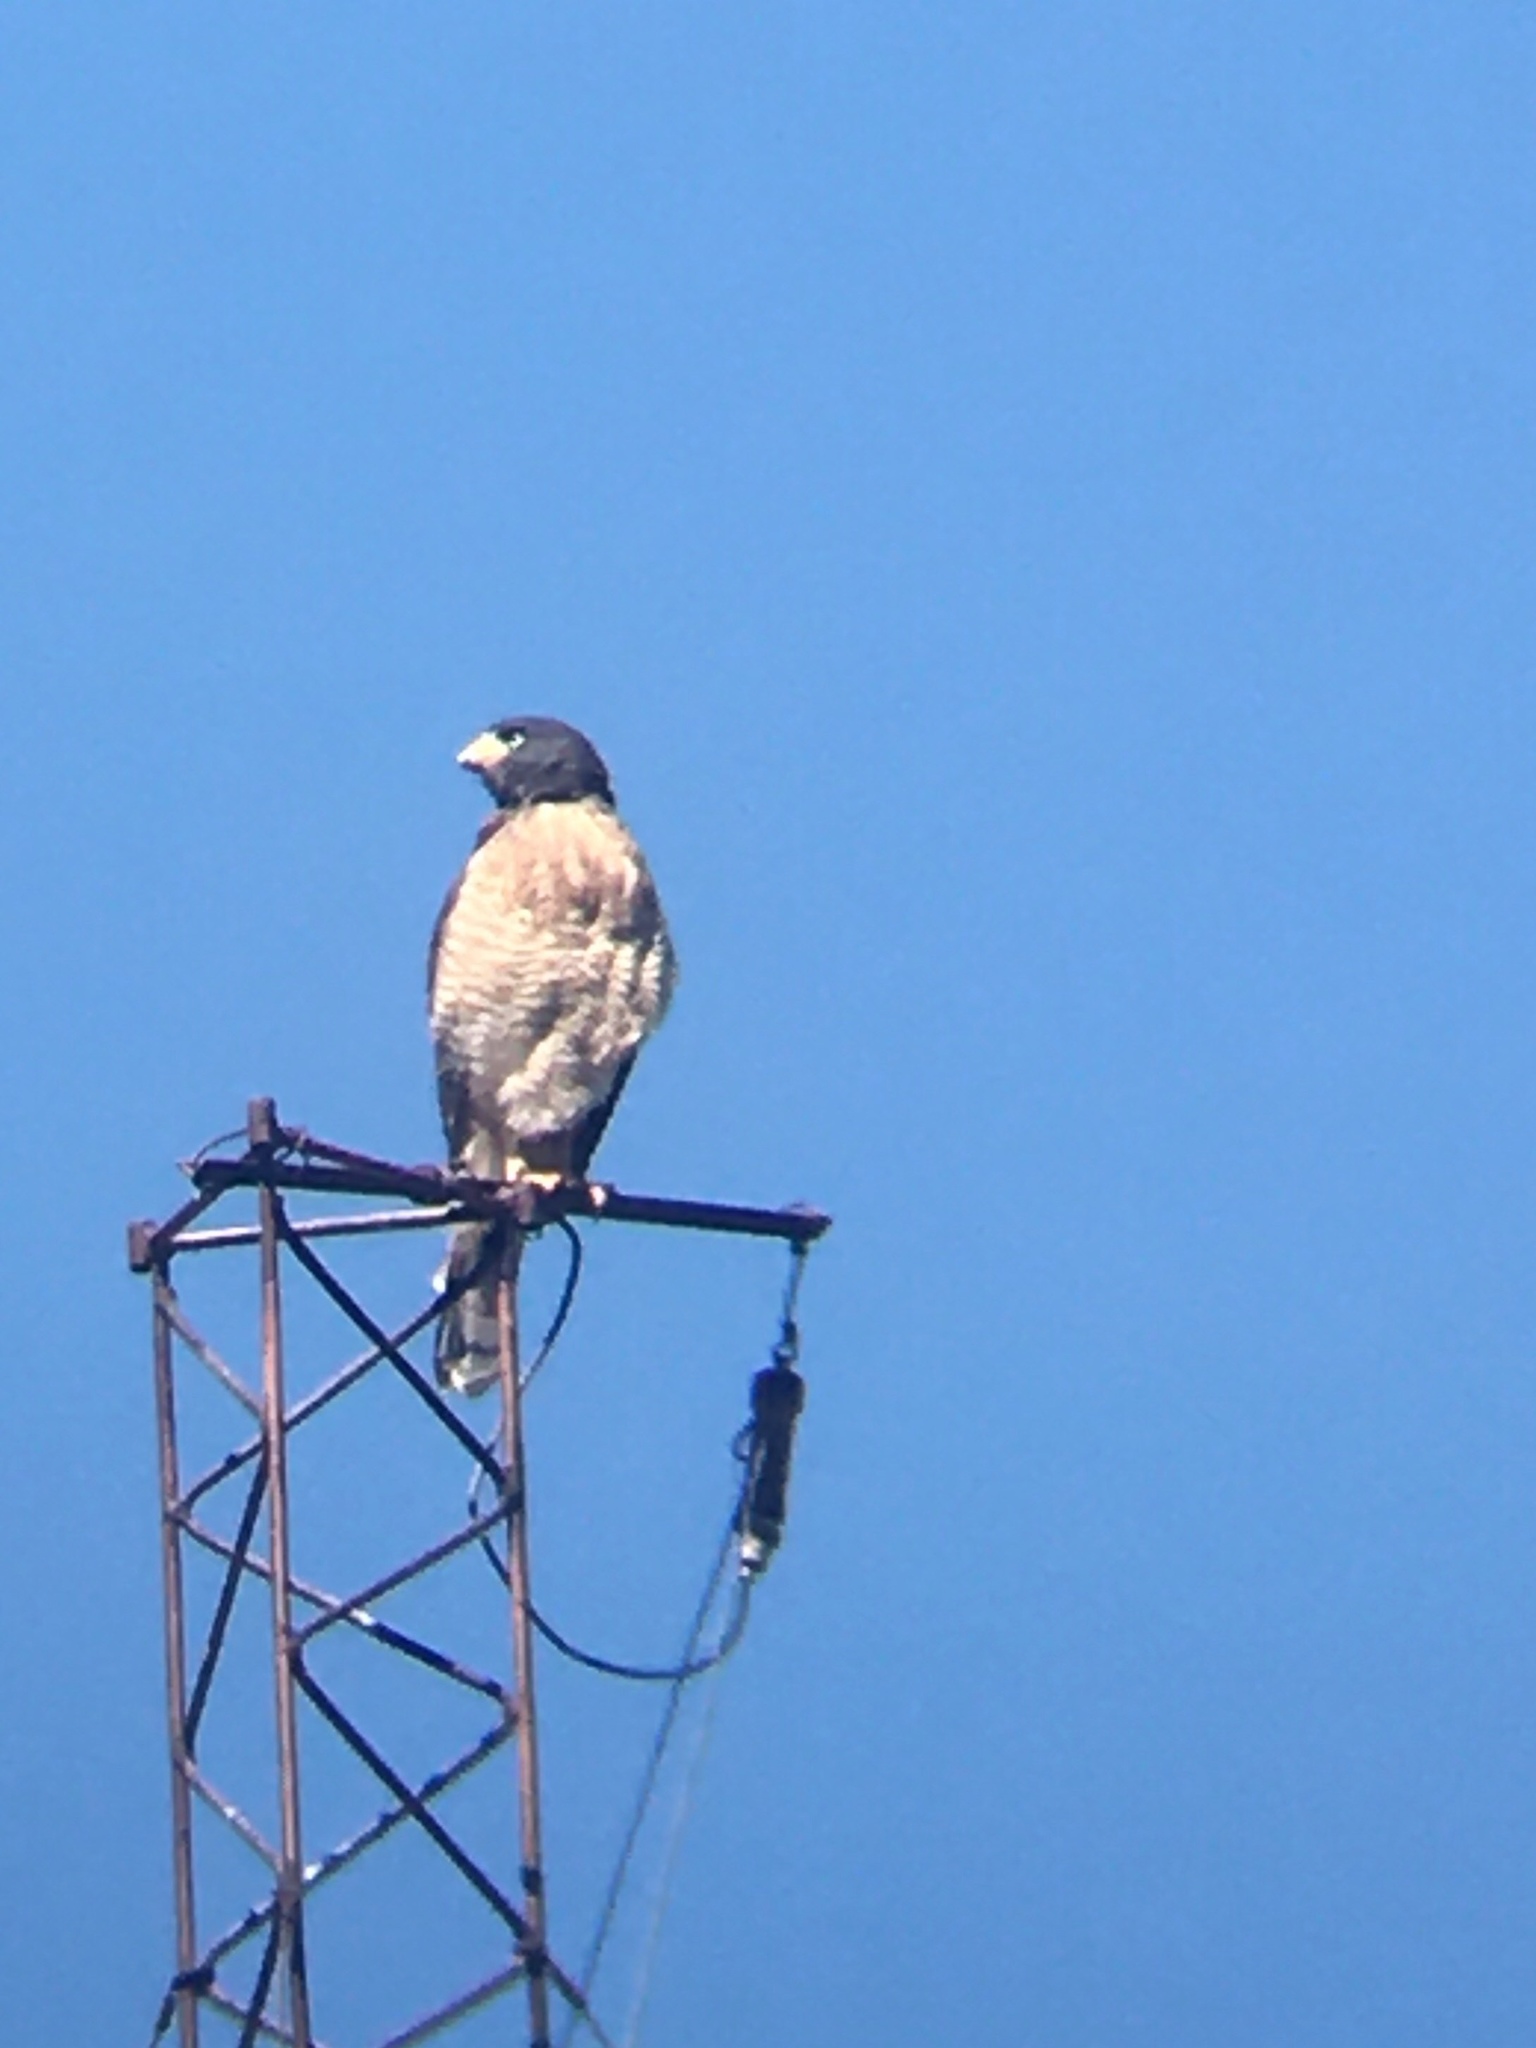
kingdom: Animalia
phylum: Chordata
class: Aves
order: Accipitriformes
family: Accipitridae
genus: Rupornis
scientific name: Rupornis magnirostris
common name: Roadside hawk
